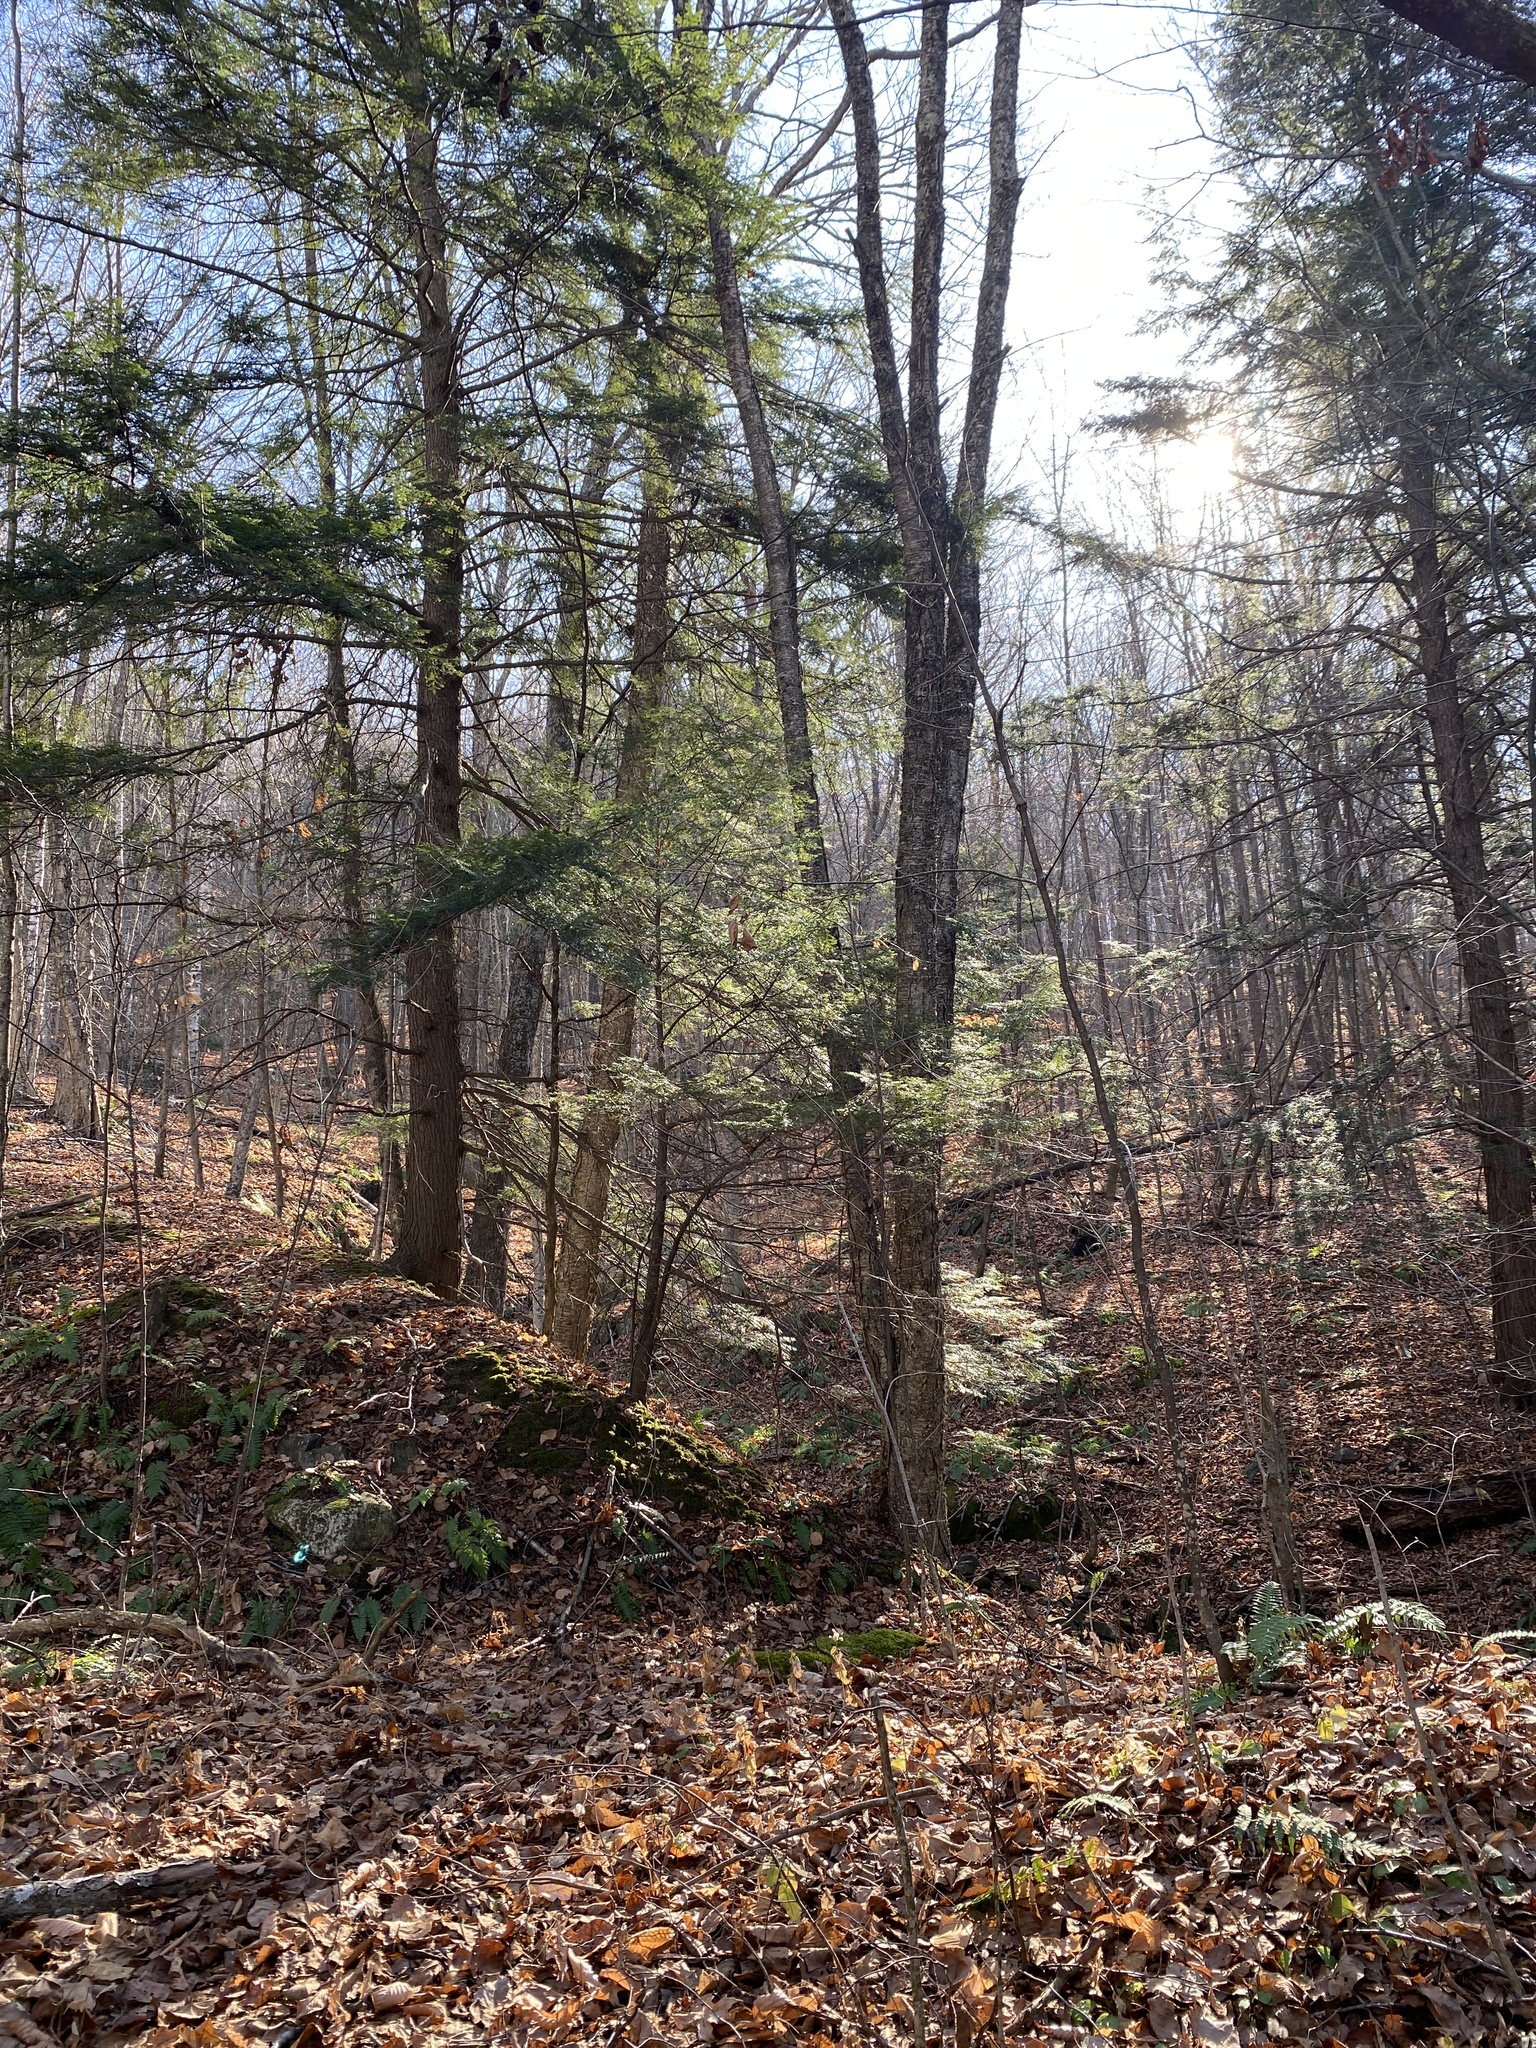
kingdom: Plantae
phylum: Tracheophyta
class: Pinopsida
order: Pinales
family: Pinaceae
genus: Tsuga
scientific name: Tsuga canadensis
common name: Eastern hemlock
